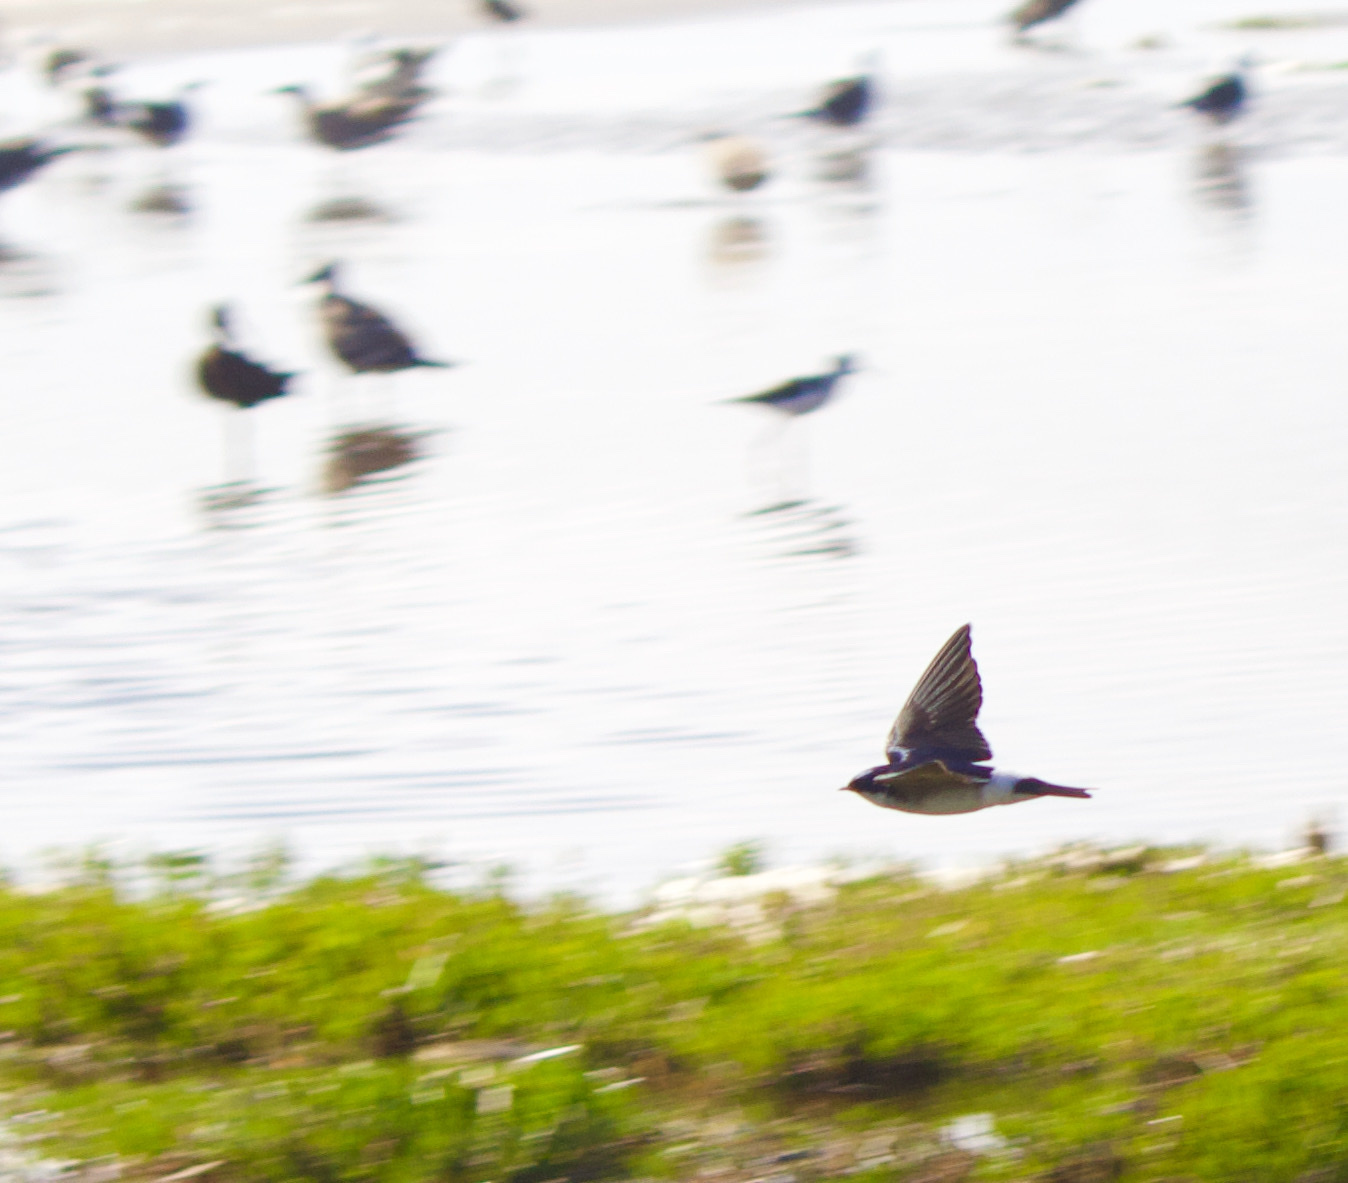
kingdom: Animalia
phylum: Chordata
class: Aves
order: Passeriformes
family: Hirundinidae
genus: Tachycineta
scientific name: Tachycineta leucopyga
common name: Chilean swallow
